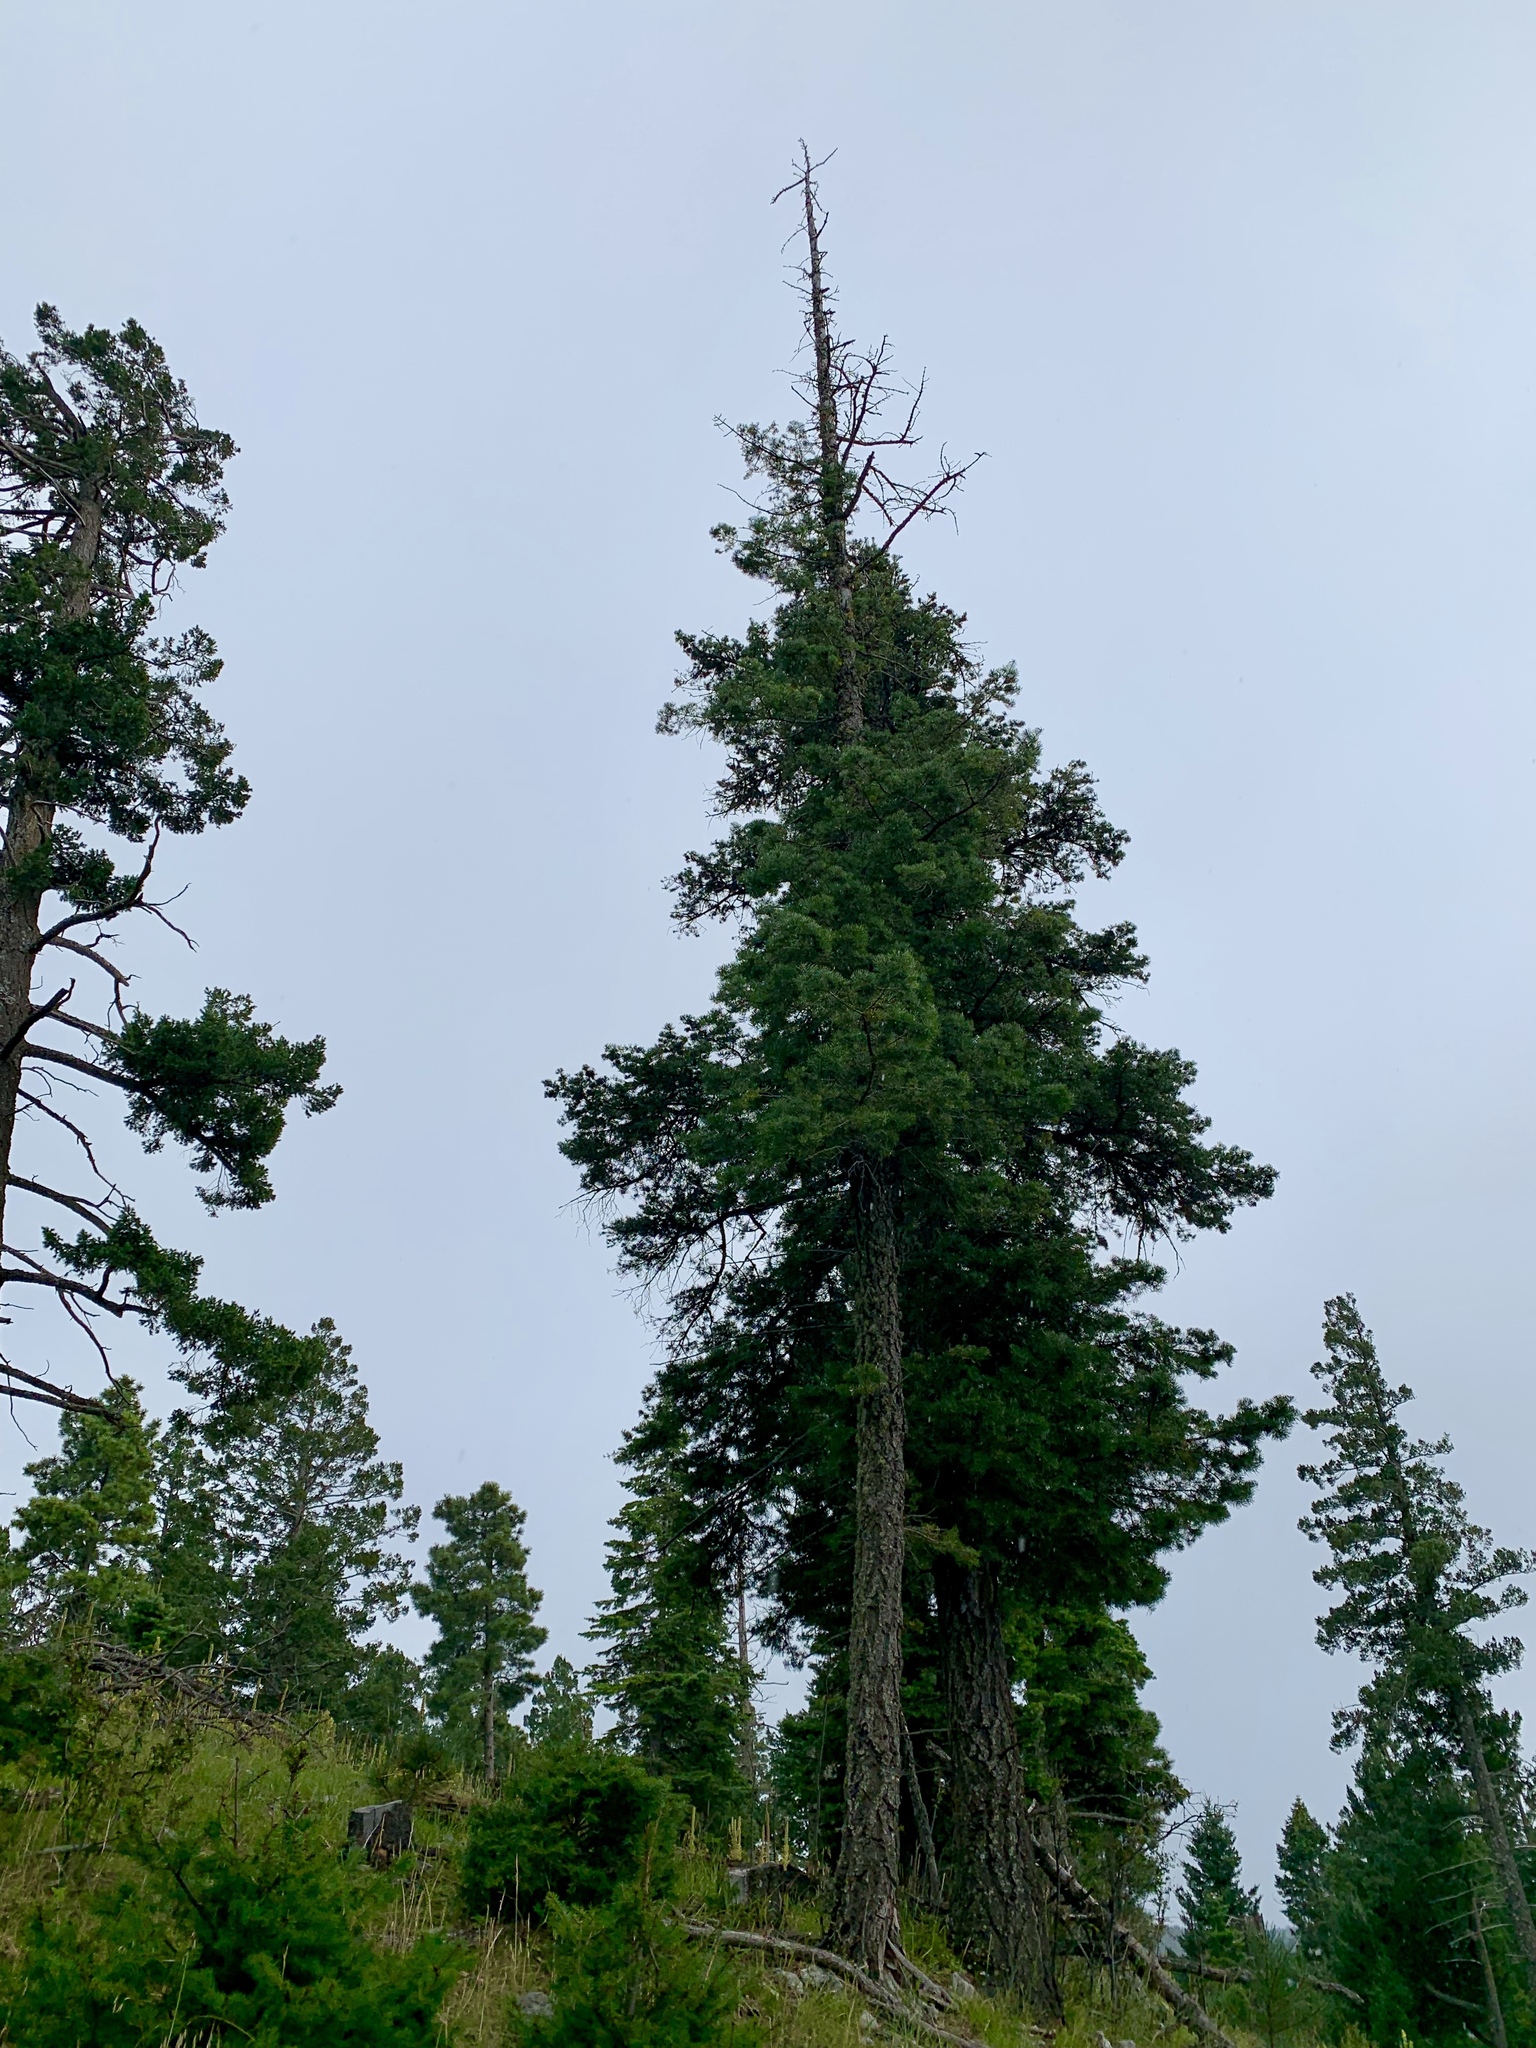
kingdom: Plantae
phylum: Tracheophyta
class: Pinopsida
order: Pinales
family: Pinaceae
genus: Abies
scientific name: Abies concolor
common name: Colorado fir
